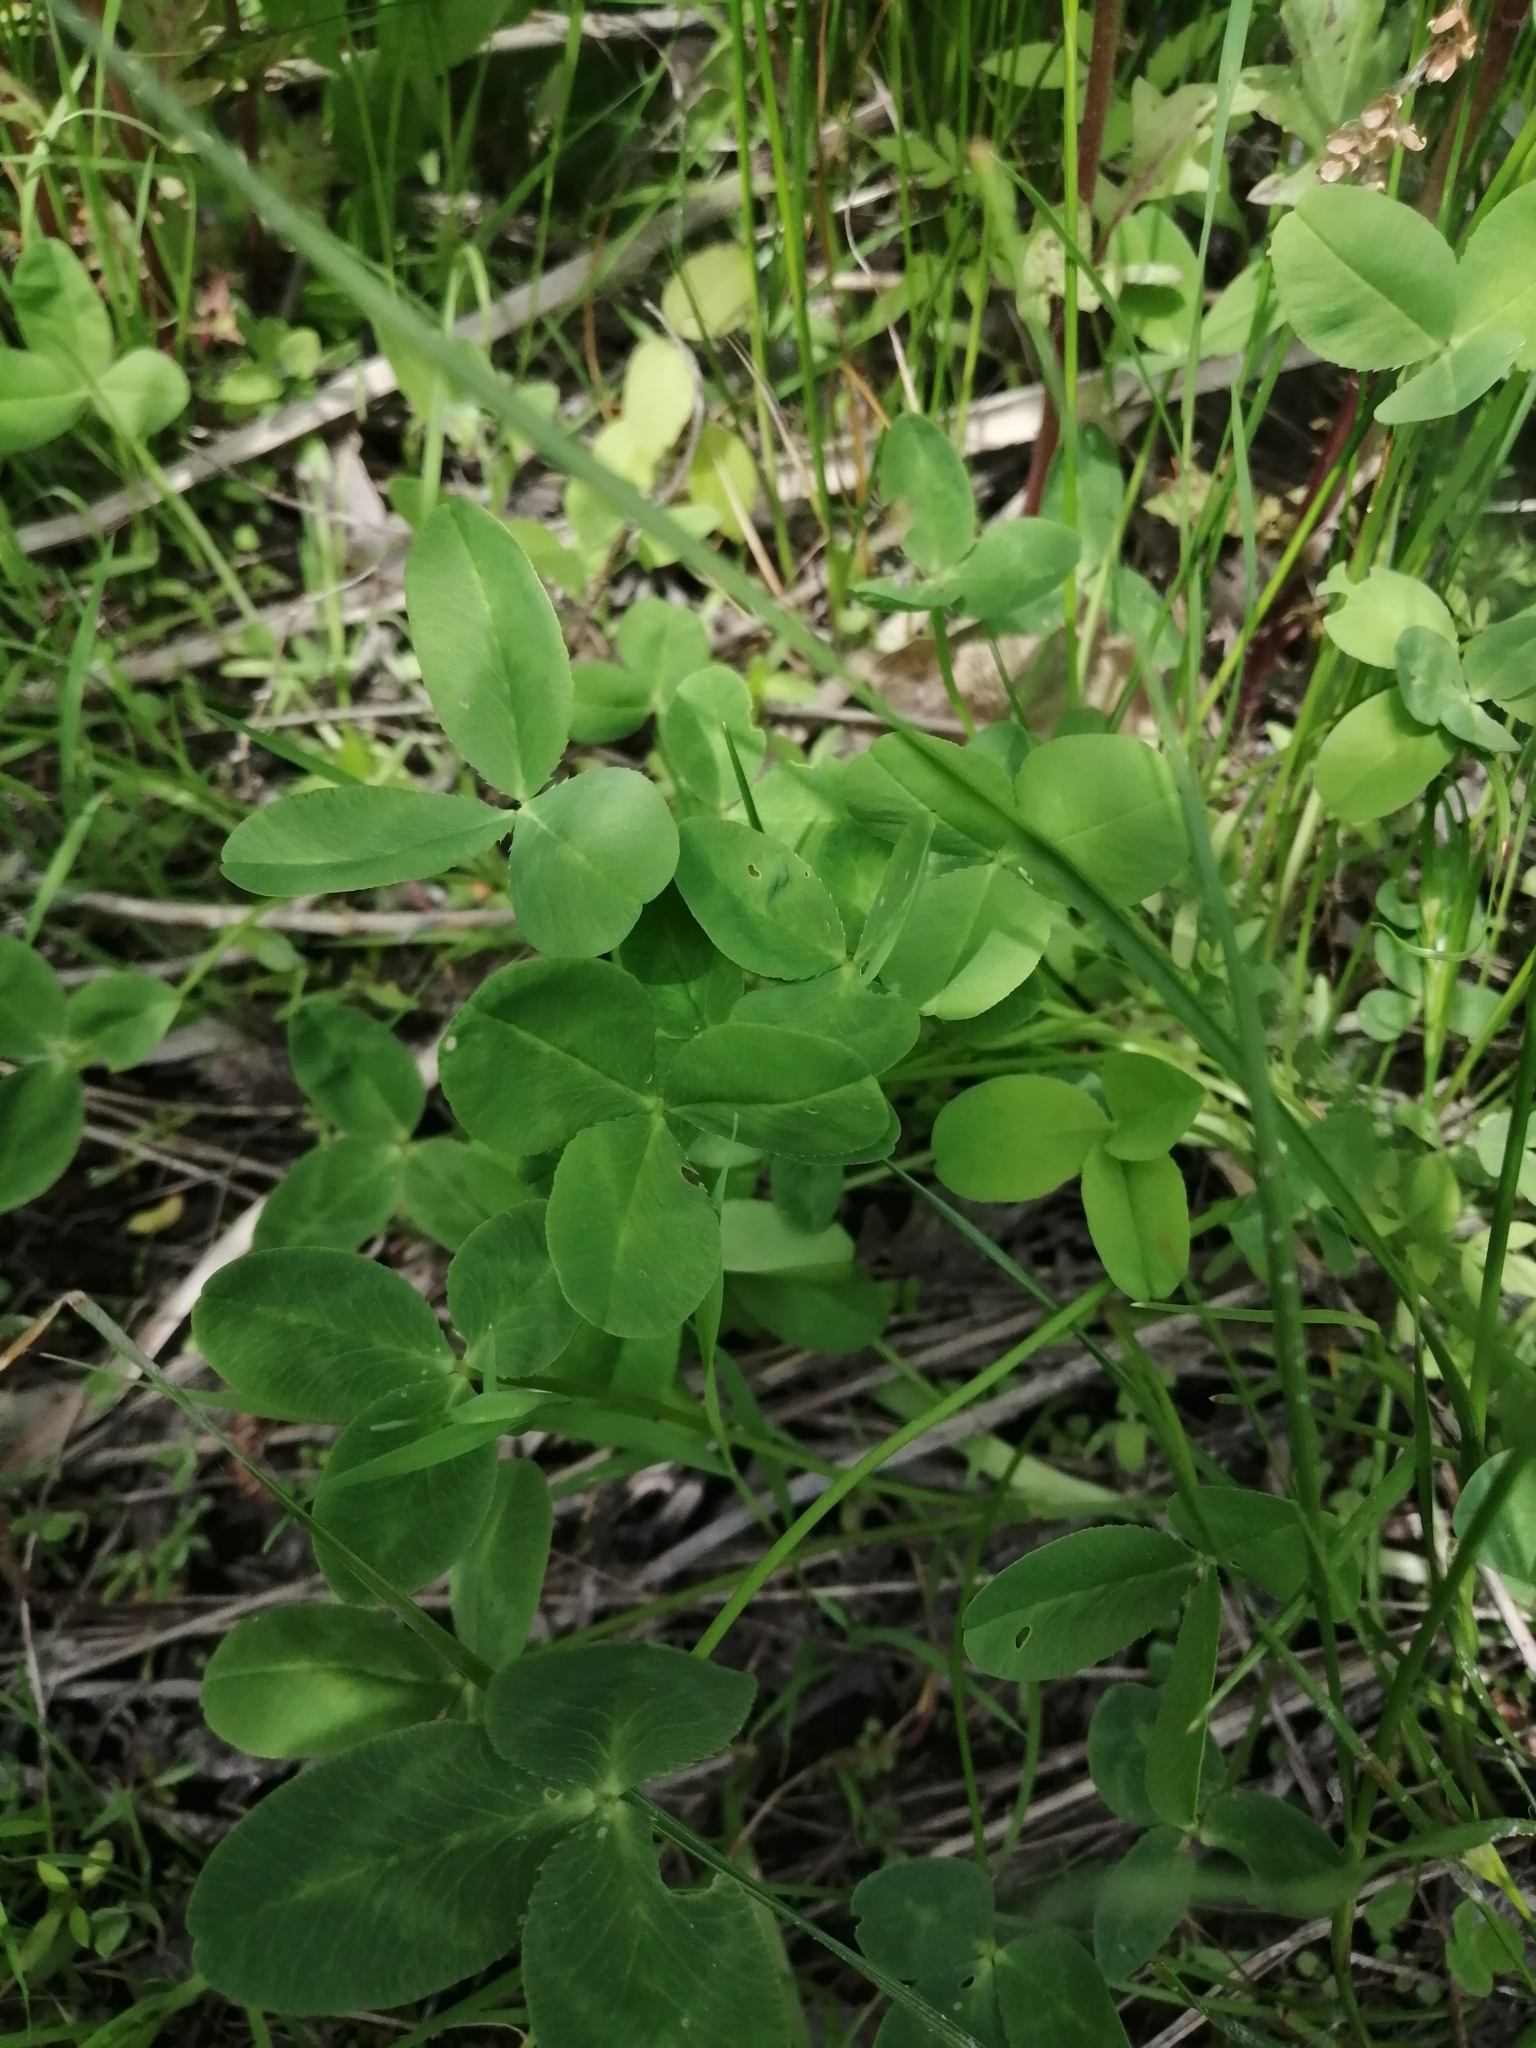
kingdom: Plantae
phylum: Tracheophyta
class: Magnoliopsida
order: Fabales
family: Fabaceae
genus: Trifolium
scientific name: Trifolium repens
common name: White clover
